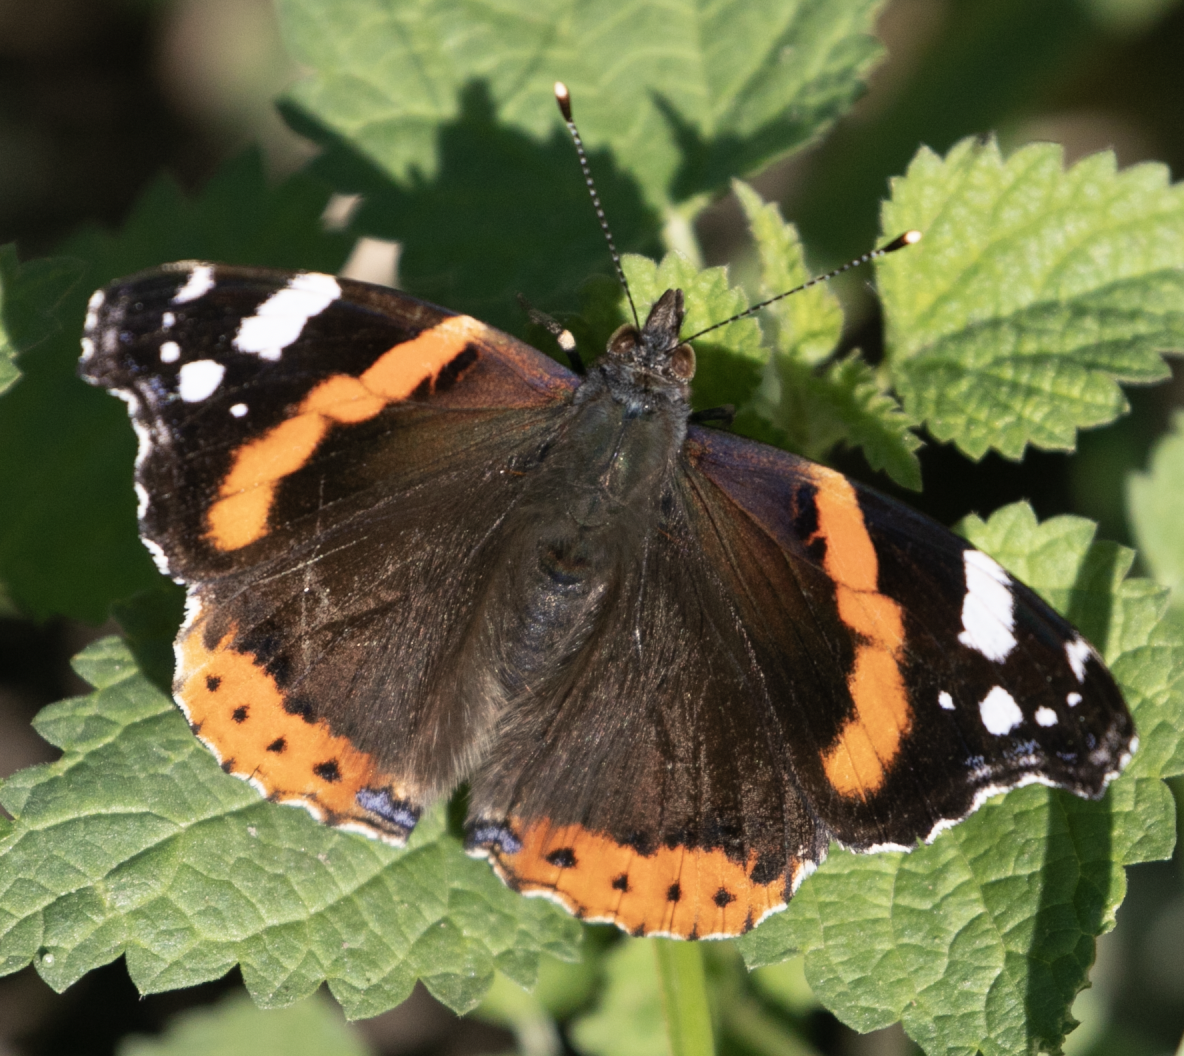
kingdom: Animalia
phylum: Arthropoda
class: Insecta
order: Lepidoptera
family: Nymphalidae
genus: Vanessa
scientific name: Vanessa atalanta
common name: Red admiral
